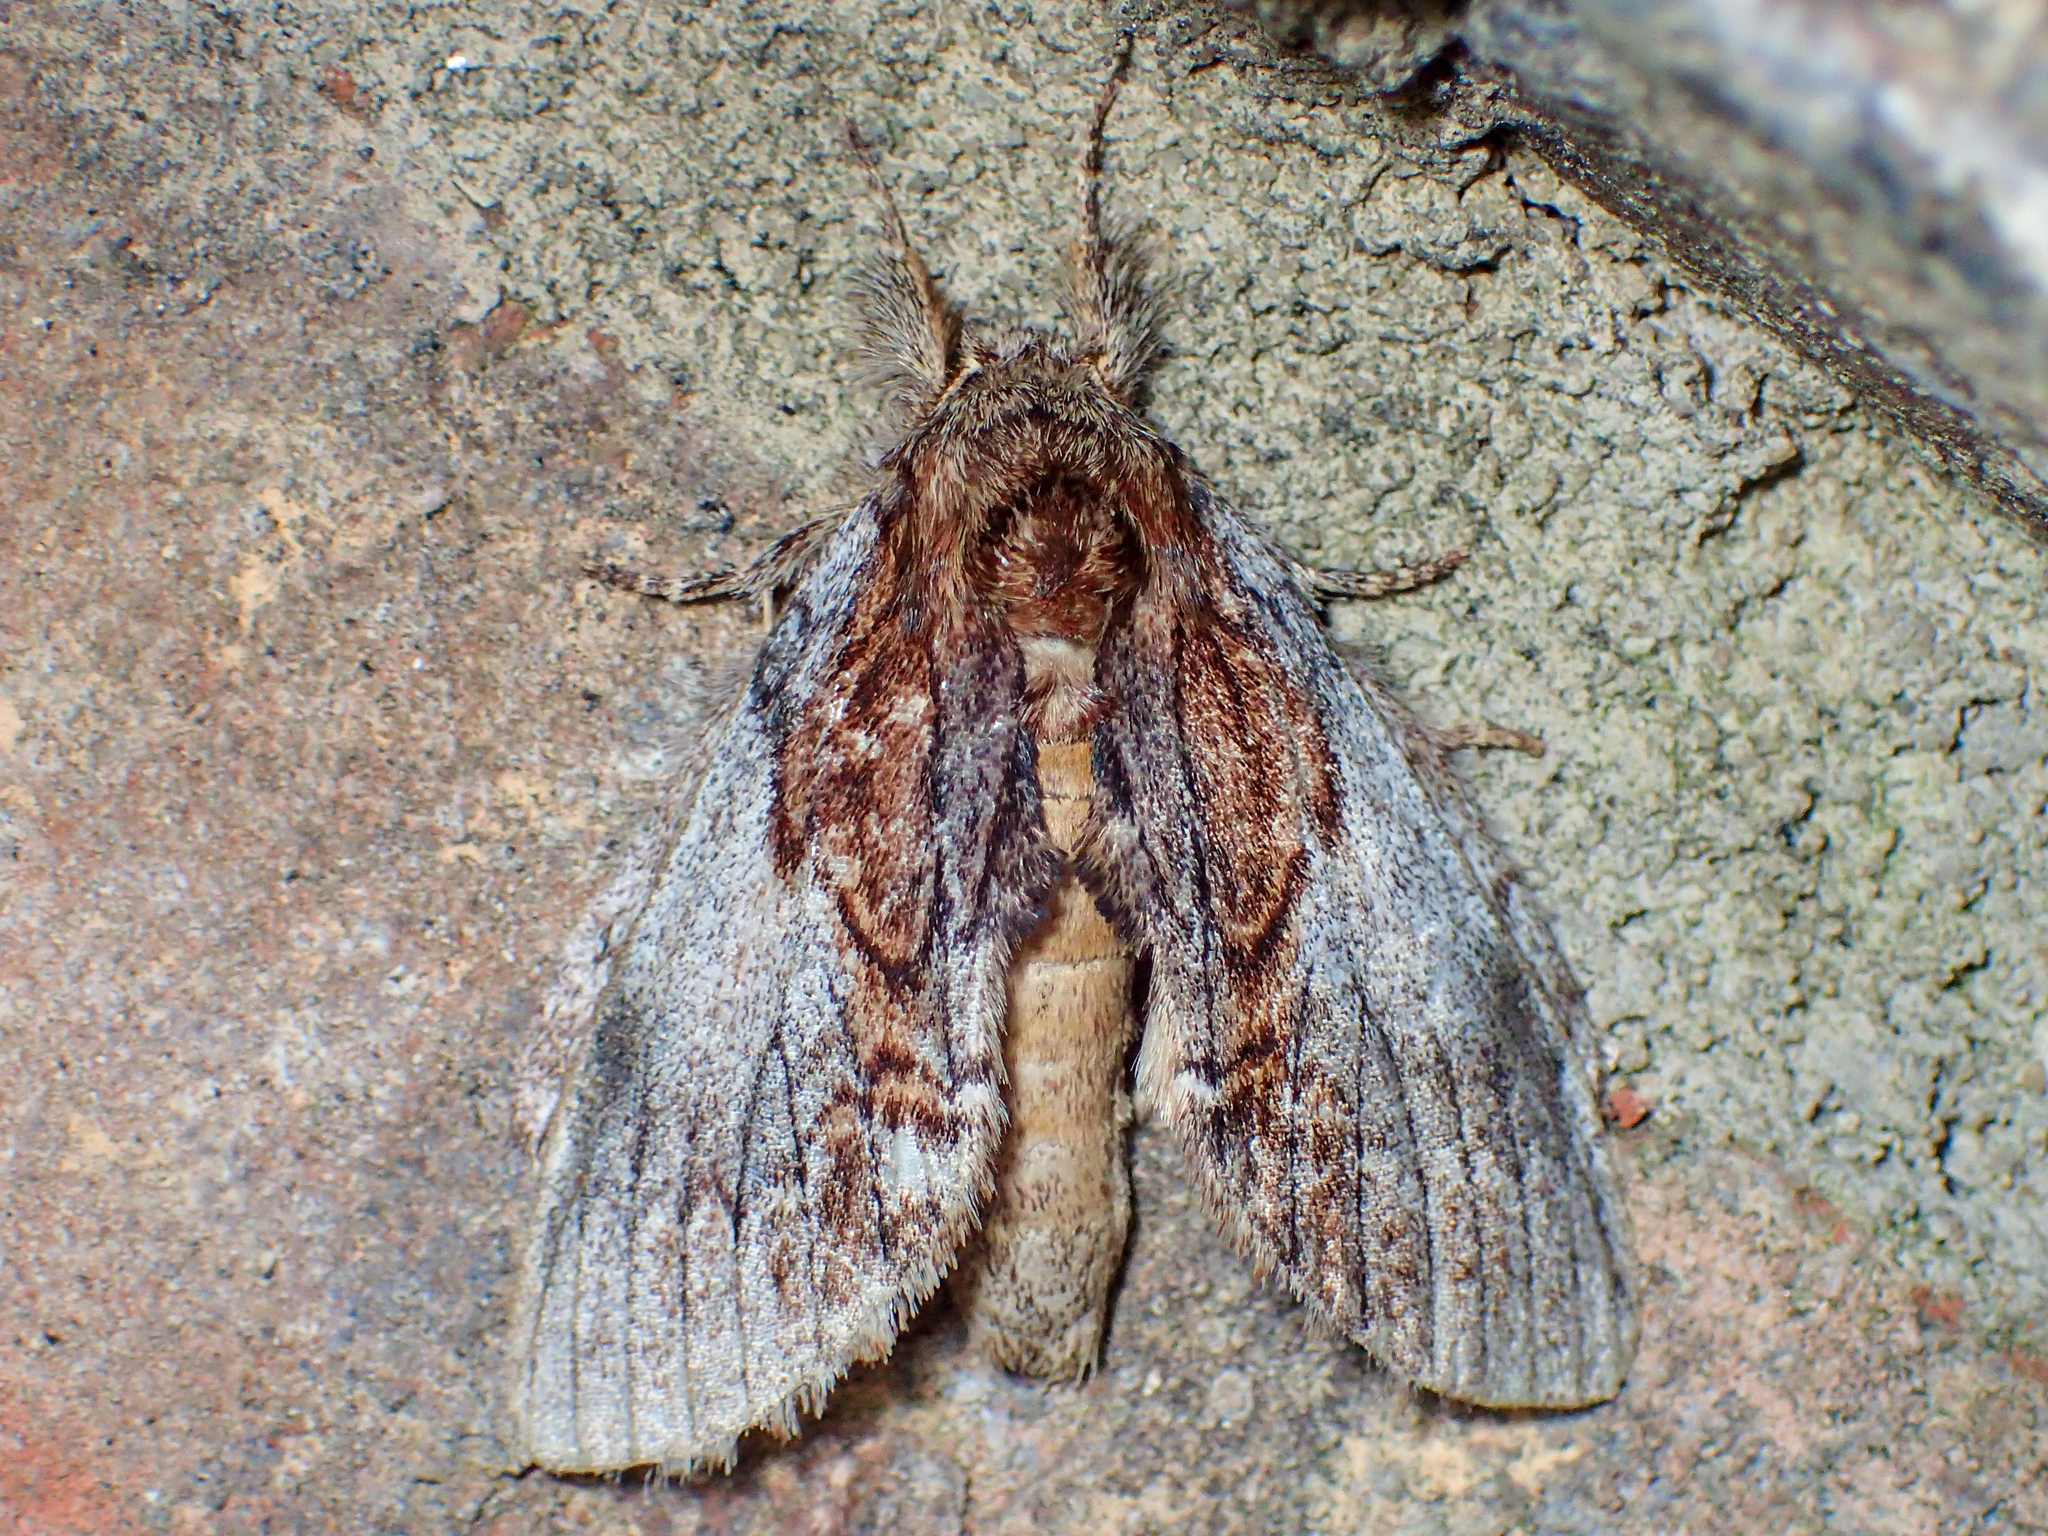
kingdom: Animalia
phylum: Arthropoda
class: Insecta
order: Lepidoptera
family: Notodontidae
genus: Peridea
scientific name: Peridea basitriens
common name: Oval-based prominent
